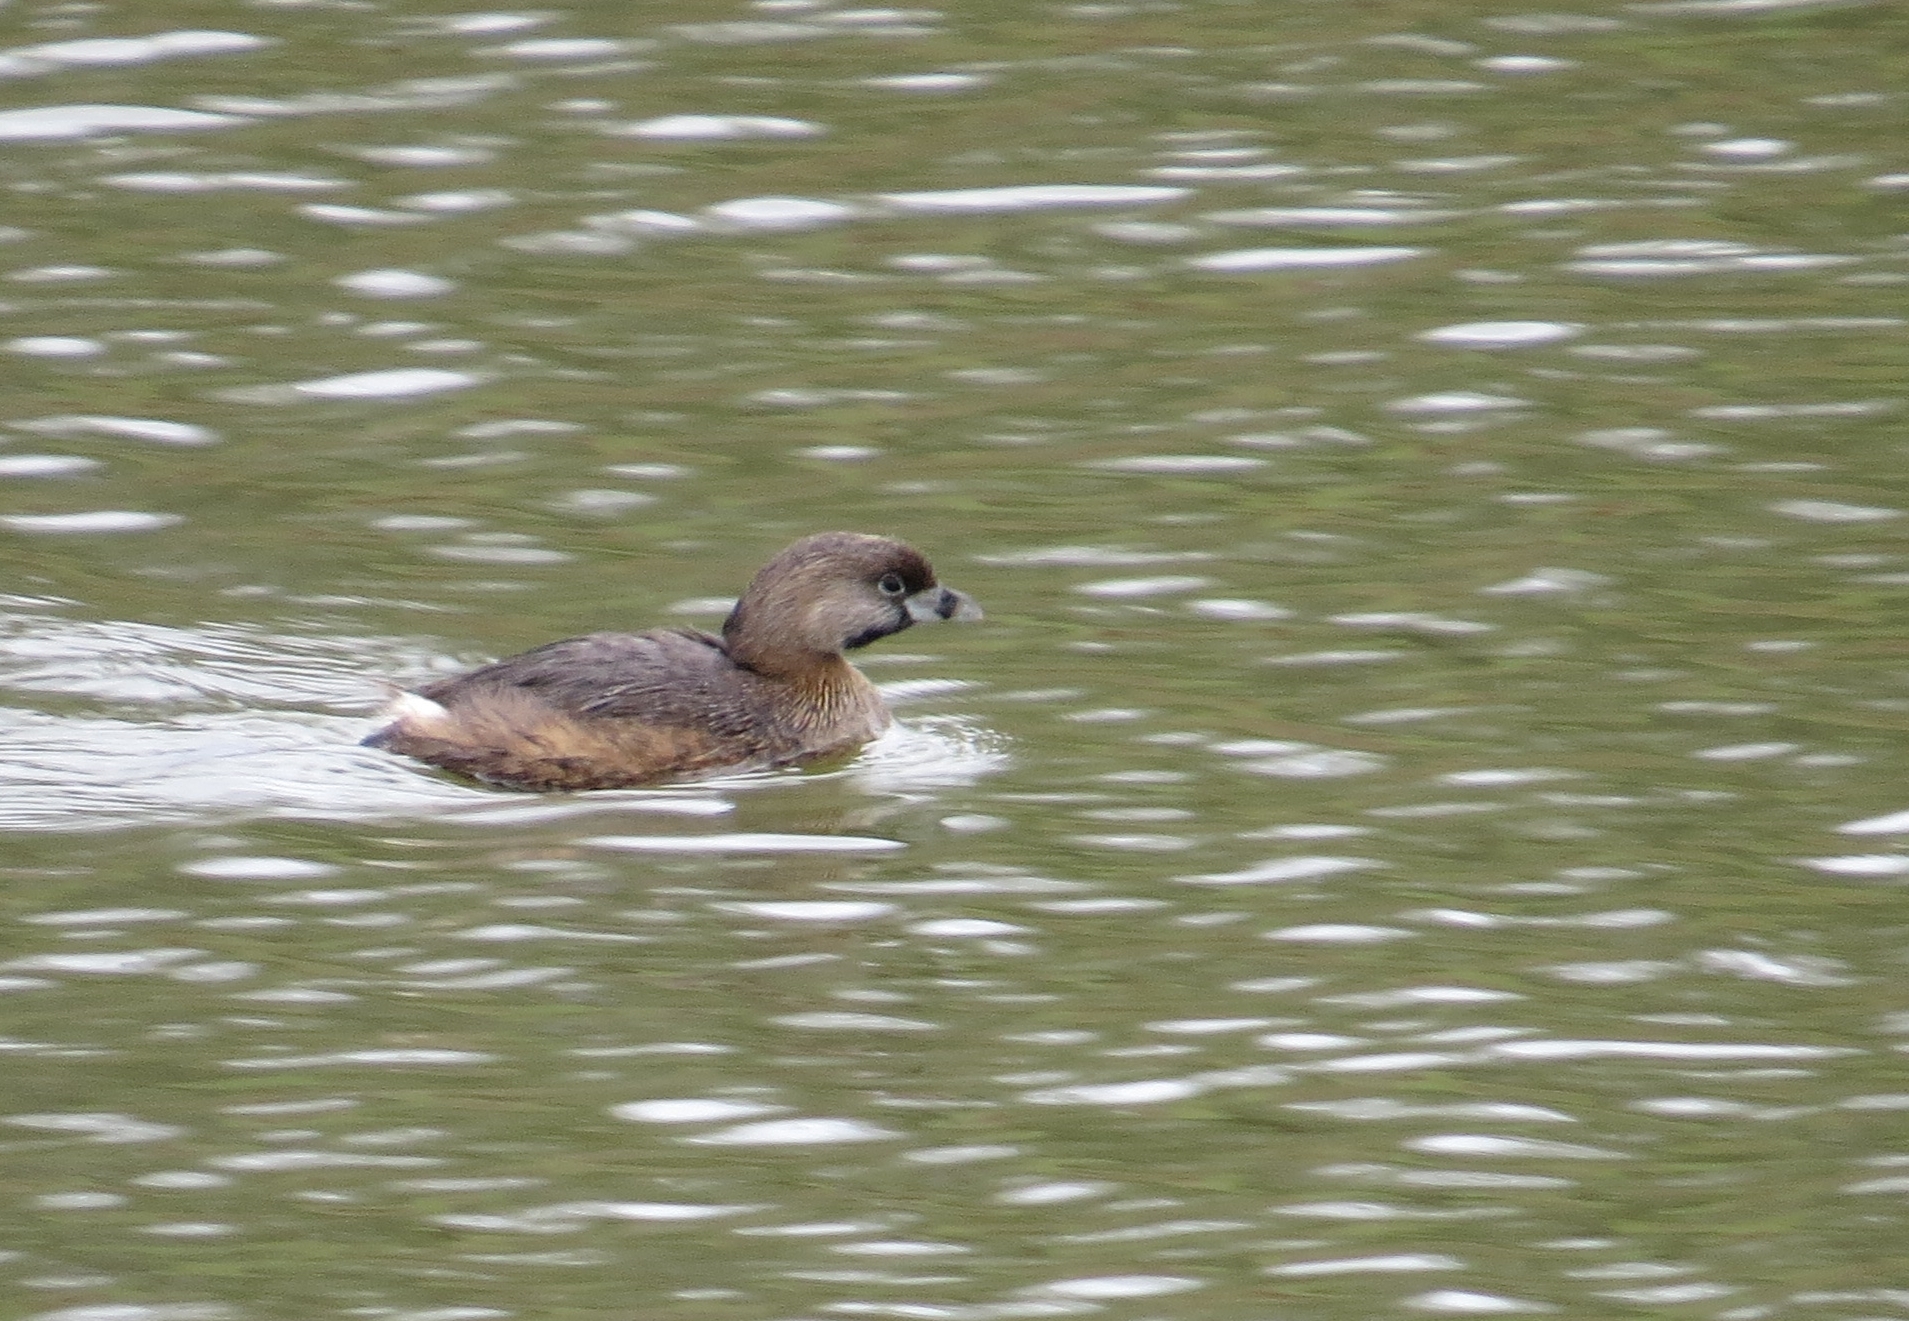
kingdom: Animalia
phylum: Chordata
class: Aves
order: Podicipediformes
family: Podicipedidae
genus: Podilymbus
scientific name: Podilymbus podiceps
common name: Pied-billed grebe
